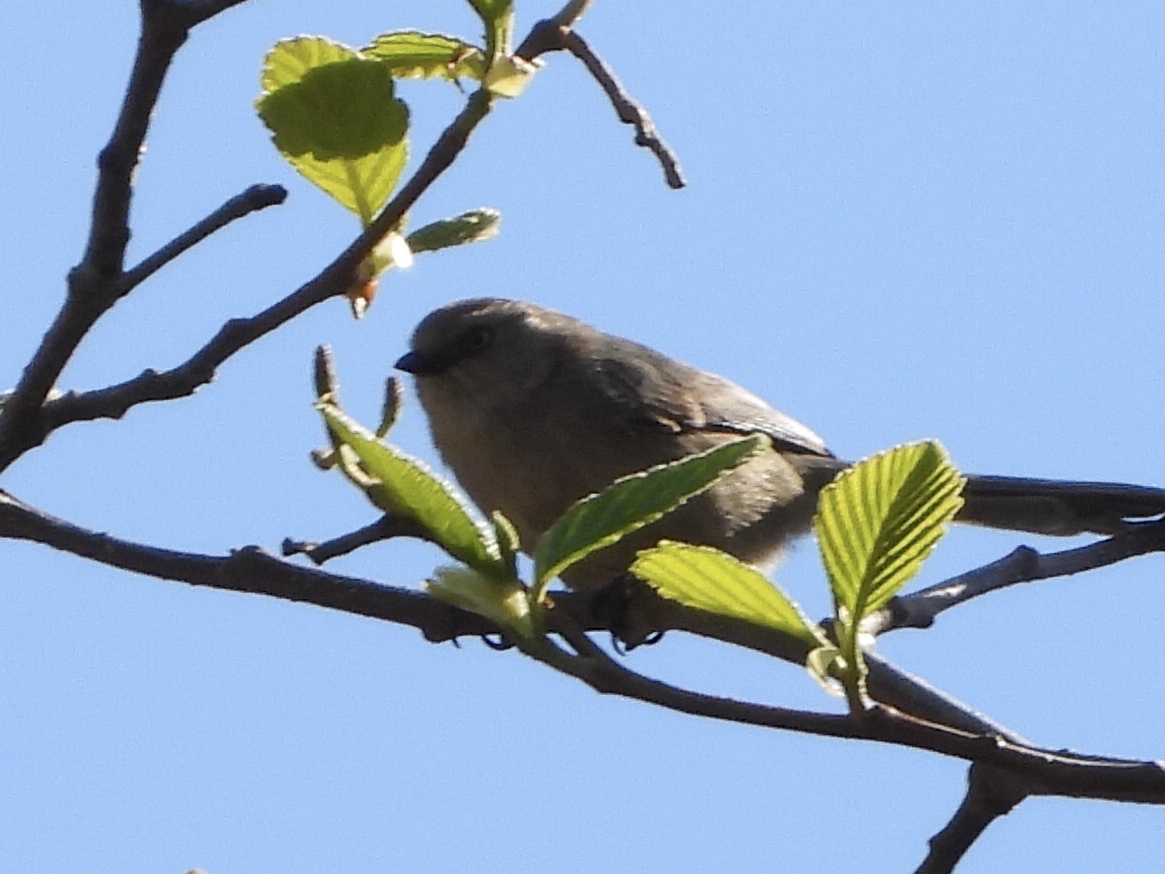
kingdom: Animalia
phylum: Chordata
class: Aves
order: Passeriformes
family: Aegithalidae
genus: Psaltriparus
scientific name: Psaltriparus minimus
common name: American bushtit
